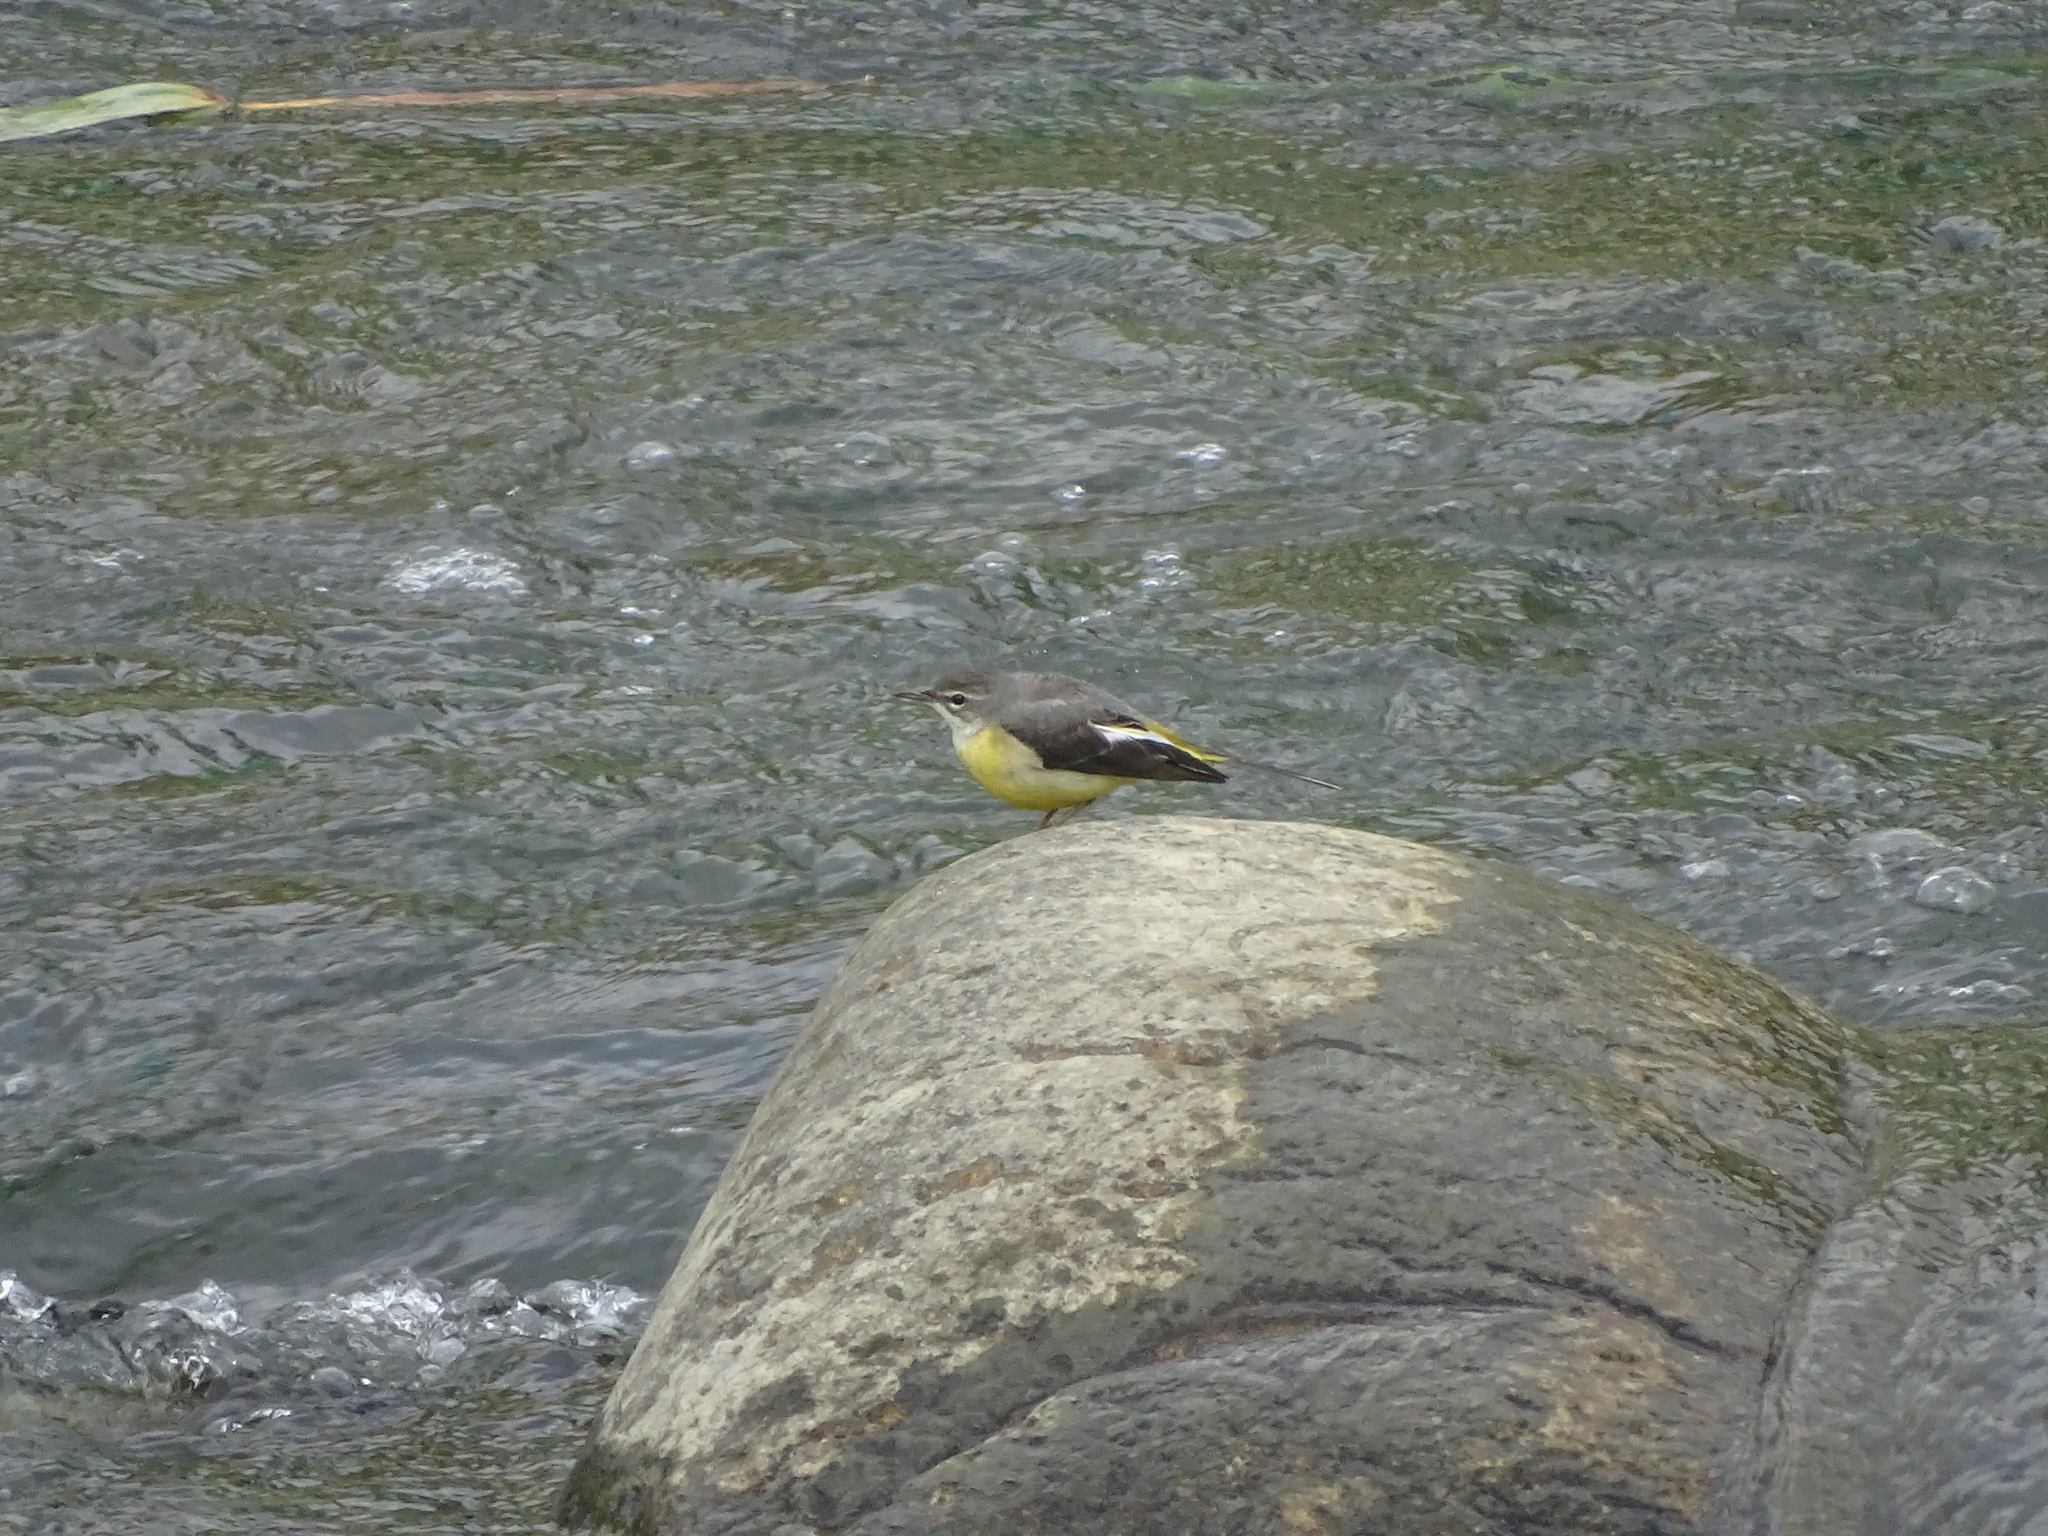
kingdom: Animalia
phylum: Chordata
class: Aves
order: Passeriformes
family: Motacillidae
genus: Motacilla
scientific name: Motacilla cinerea
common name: Grey wagtail
